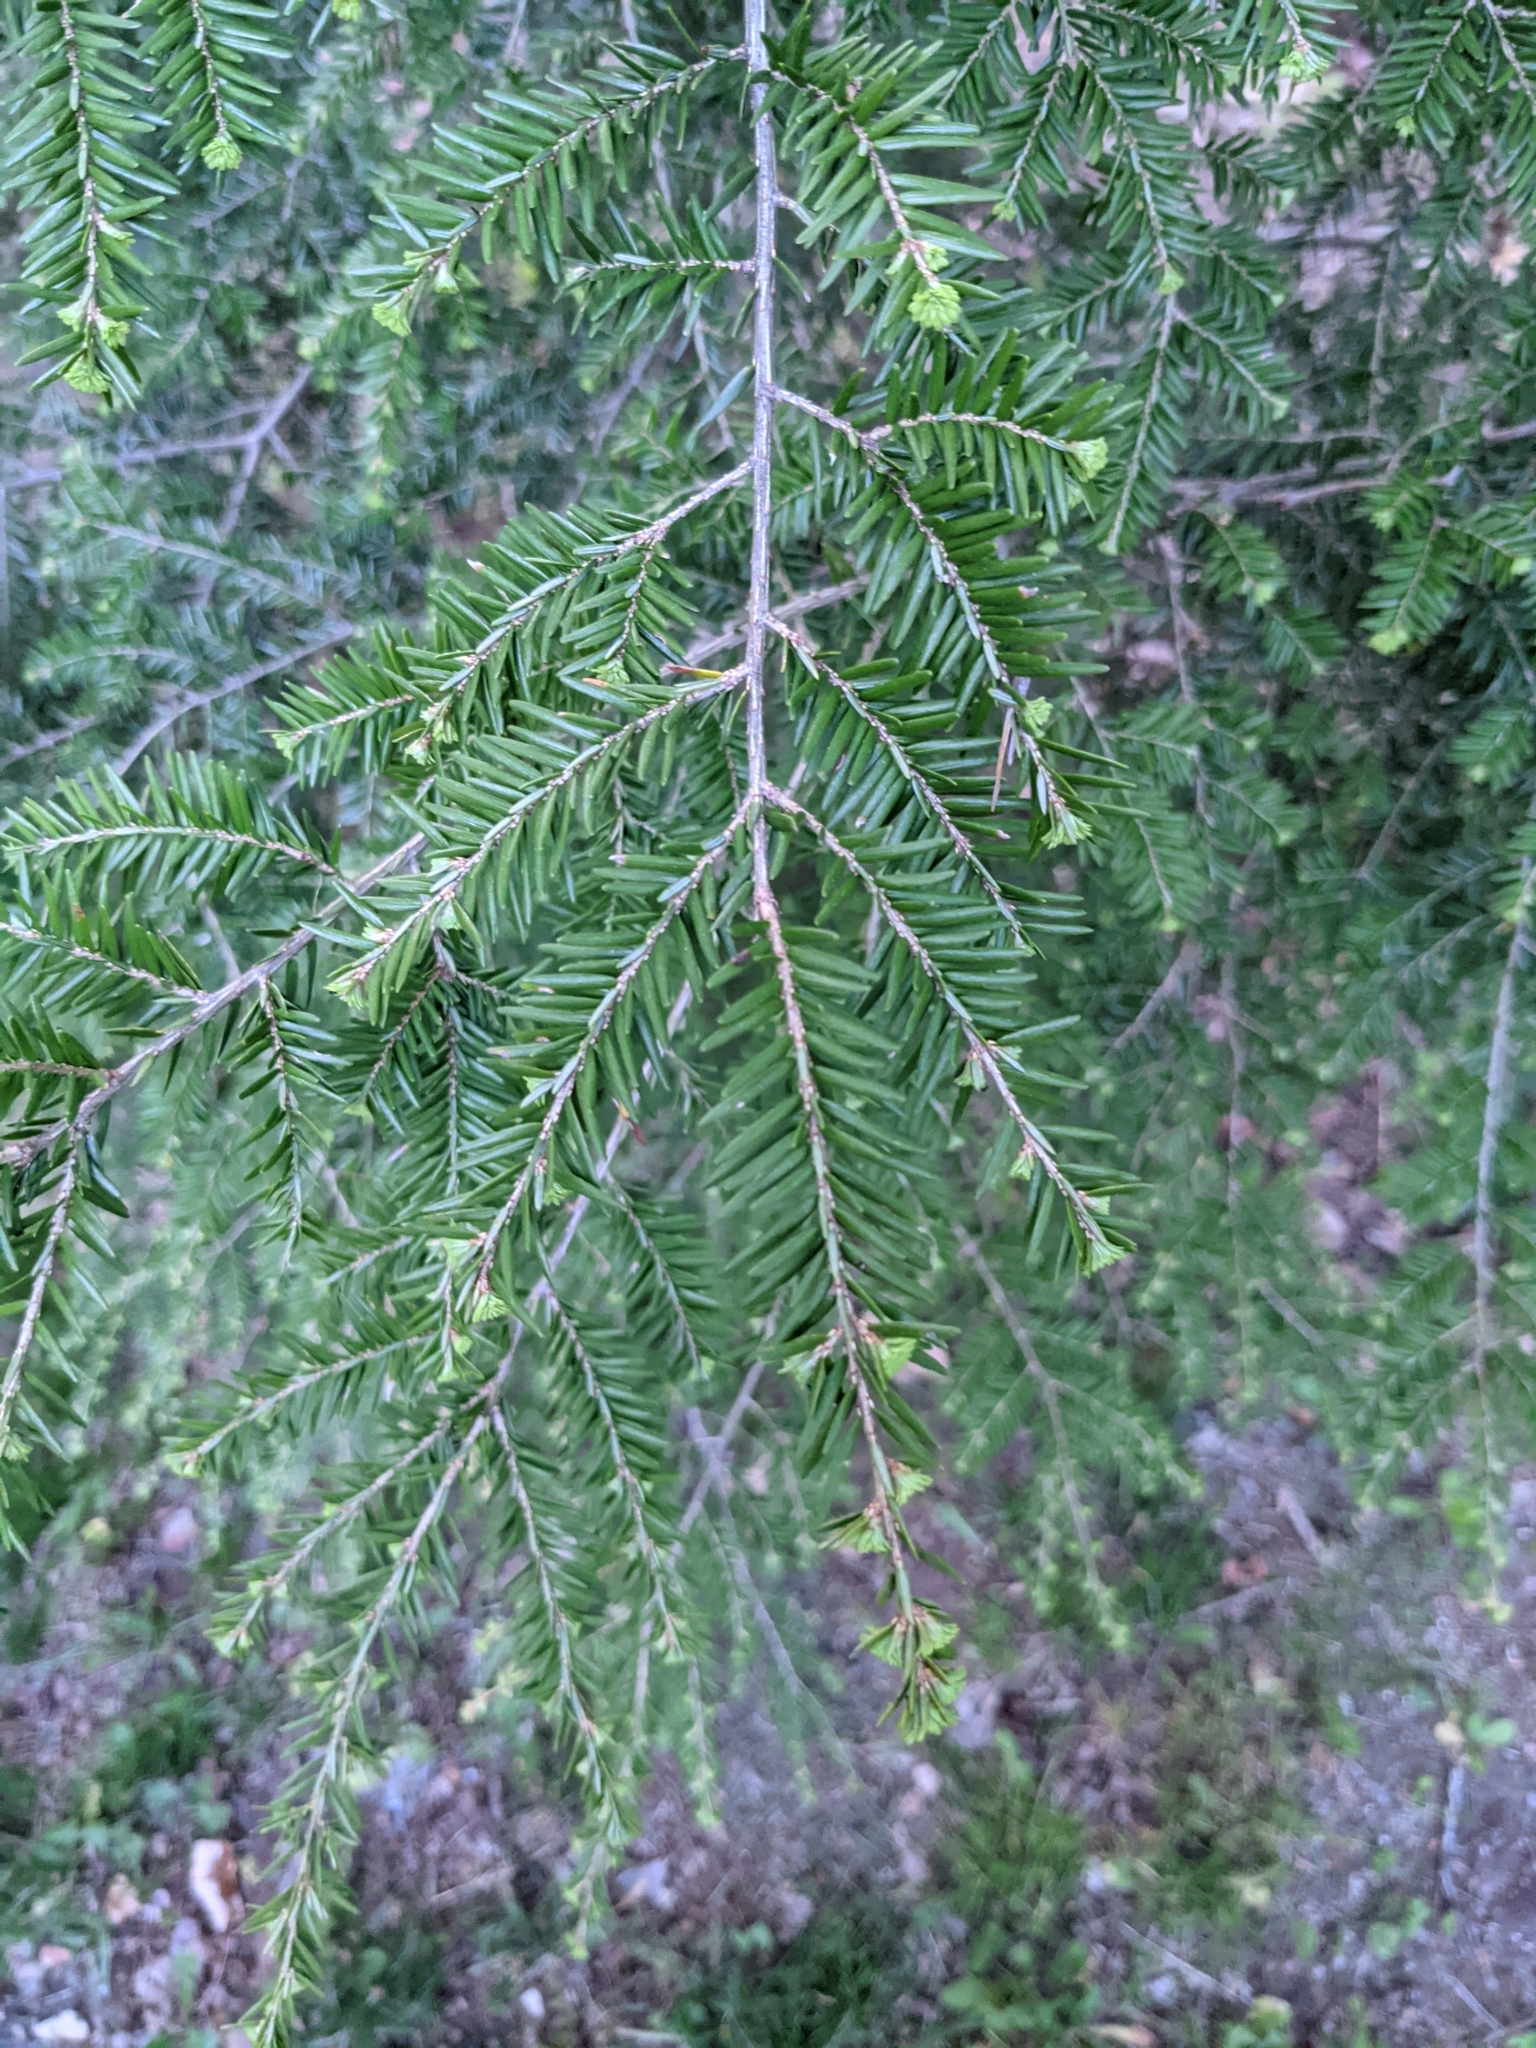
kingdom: Plantae
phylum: Tracheophyta
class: Pinopsida
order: Pinales
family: Pinaceae
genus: Tsuga
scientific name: Tsuga canadensis
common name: Eastern hemlock
